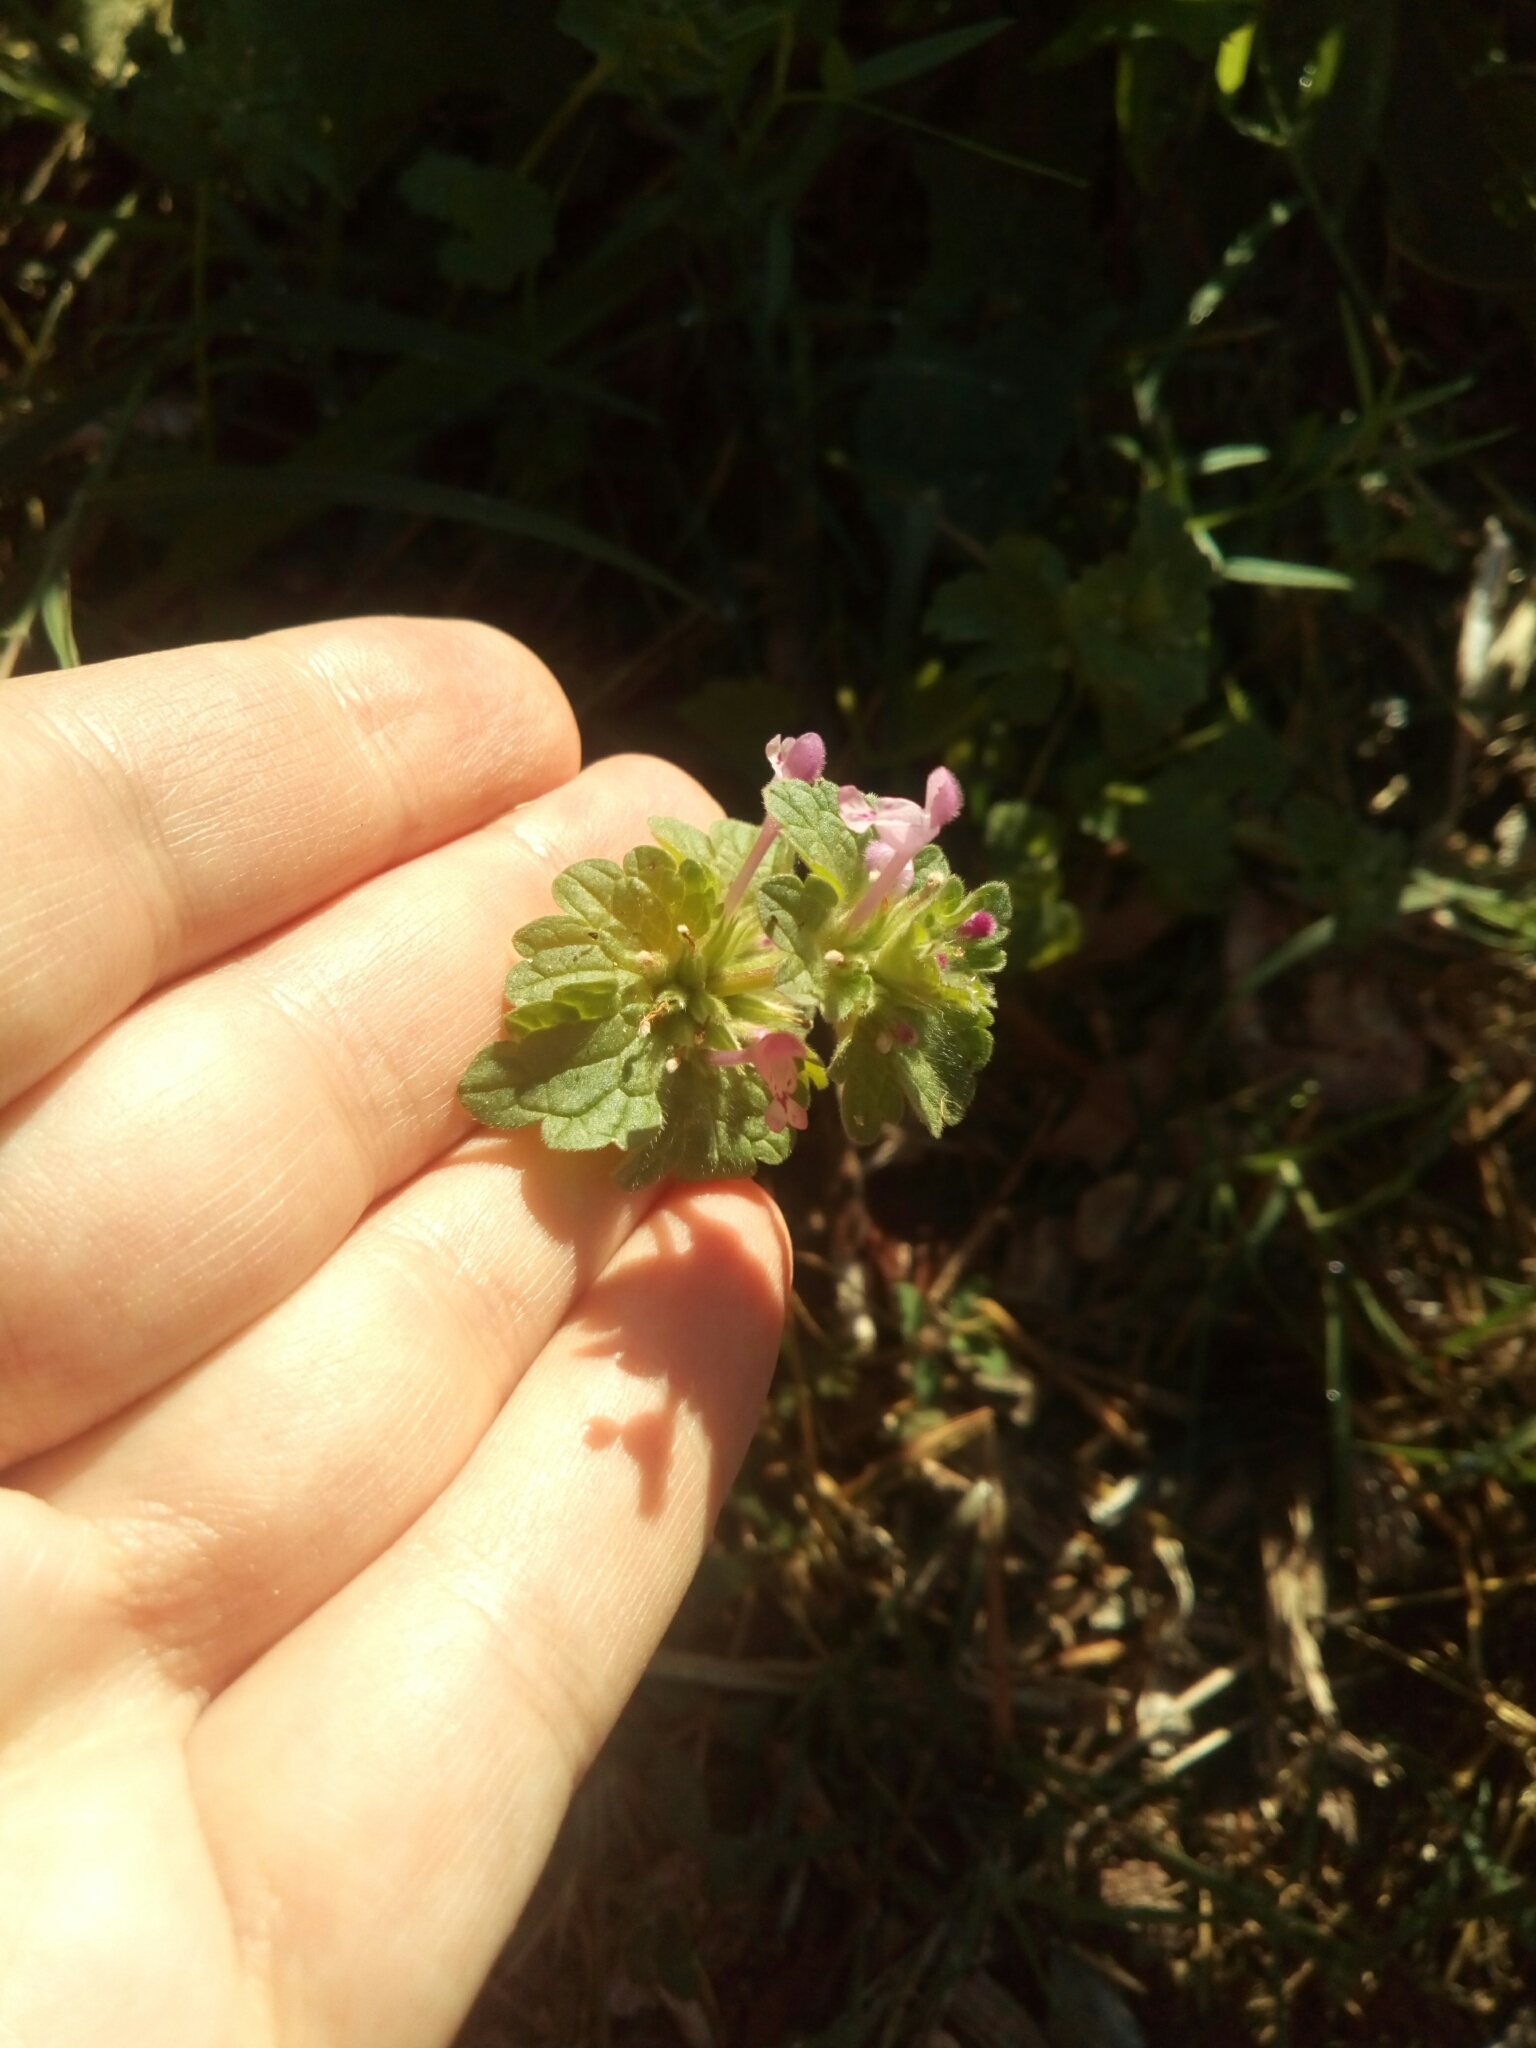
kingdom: Plantae
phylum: Tracheophyta
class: Magnoliopsida
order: Lamiales
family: Lamiaceae
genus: Lamium
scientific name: Lamium amplexicaule
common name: Henbit dead-nettle
